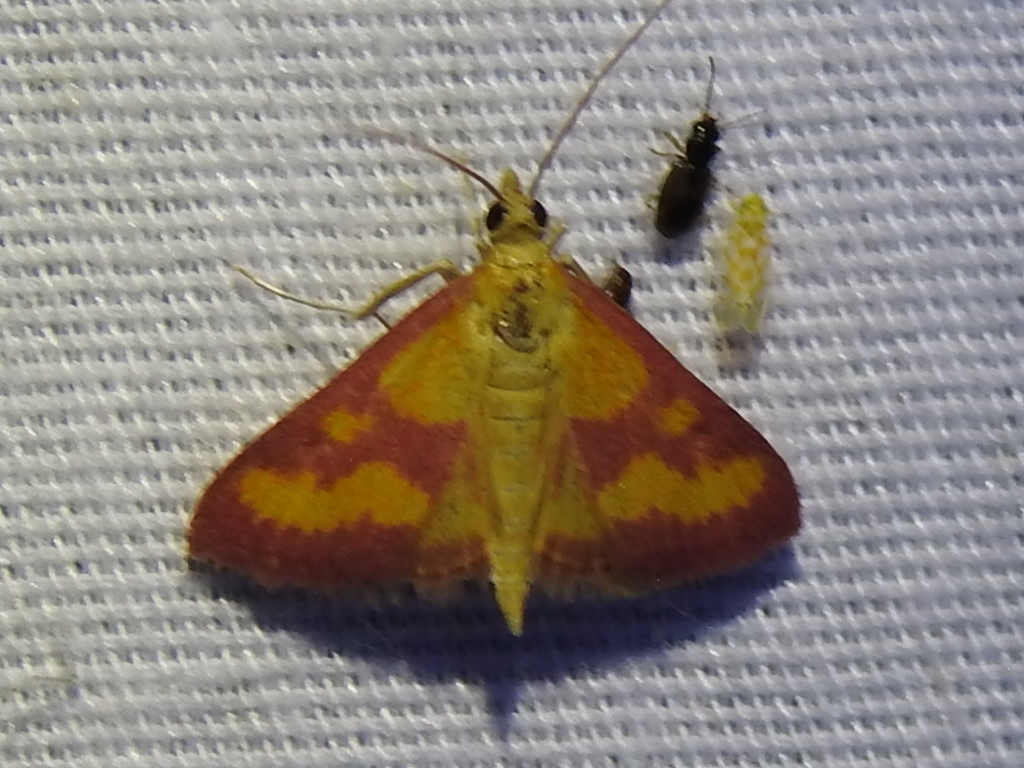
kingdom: Animalia
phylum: Arthropoda
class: Insecta
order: Lepidoptera
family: Crambidae
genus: Pyrausta
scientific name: Pyrausta laticlavia
